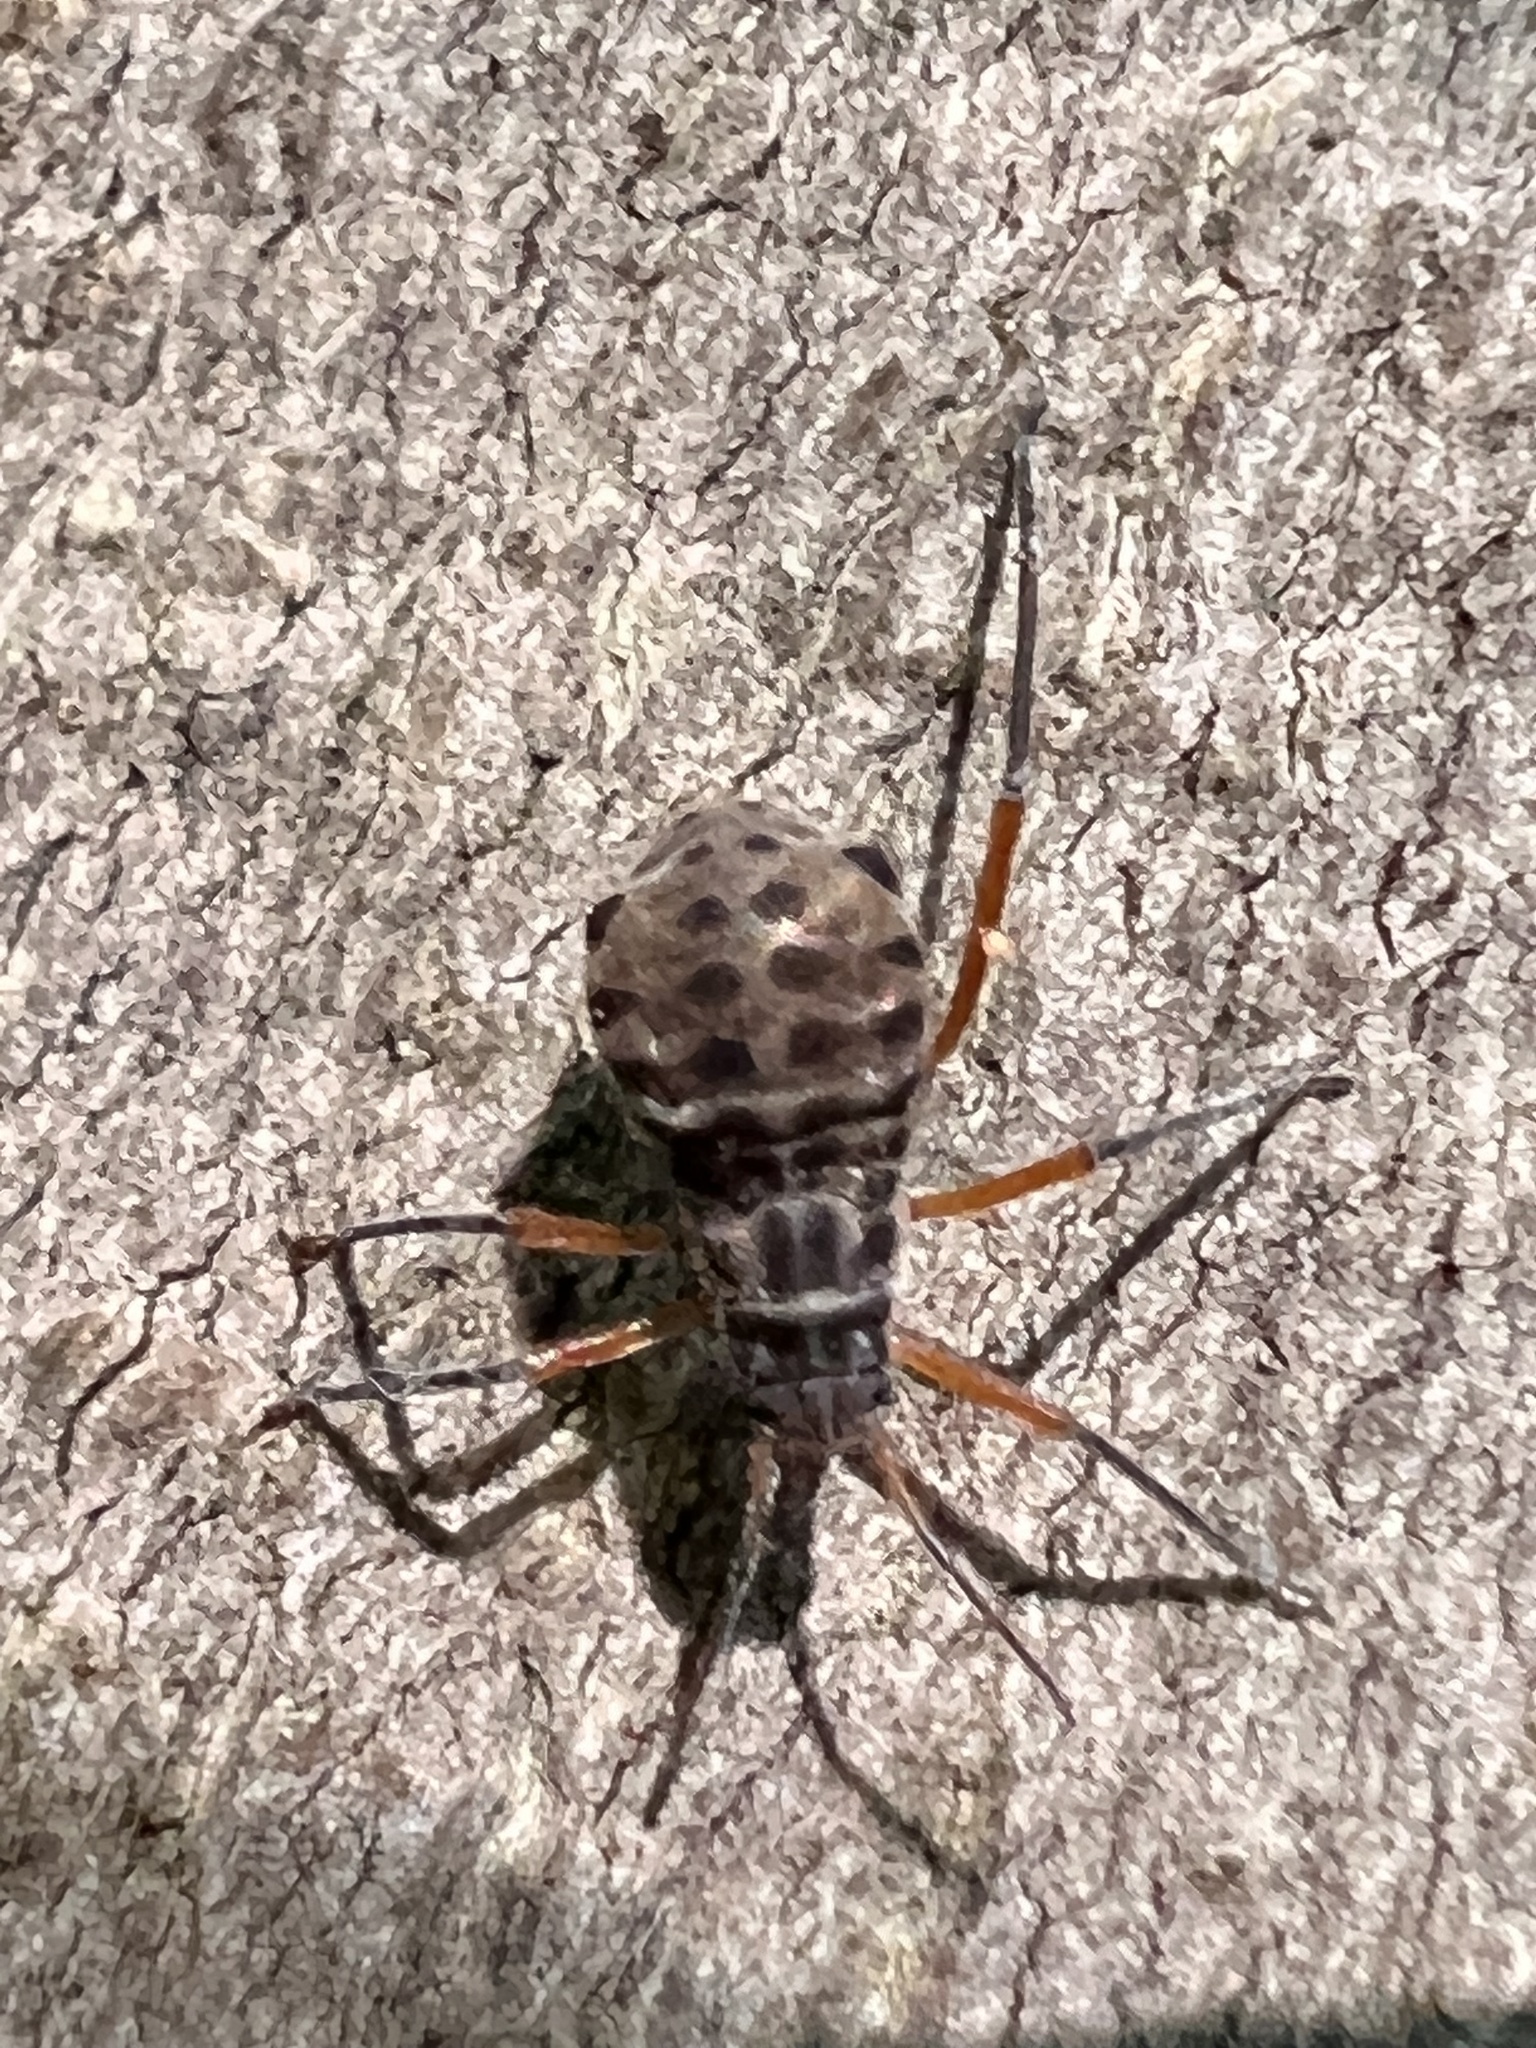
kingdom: Animalia
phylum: Arthropoda
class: Insecta
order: Hemiptera
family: Aphididae
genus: Longistigma
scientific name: Longistigma caryae
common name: Giant bark aphid
